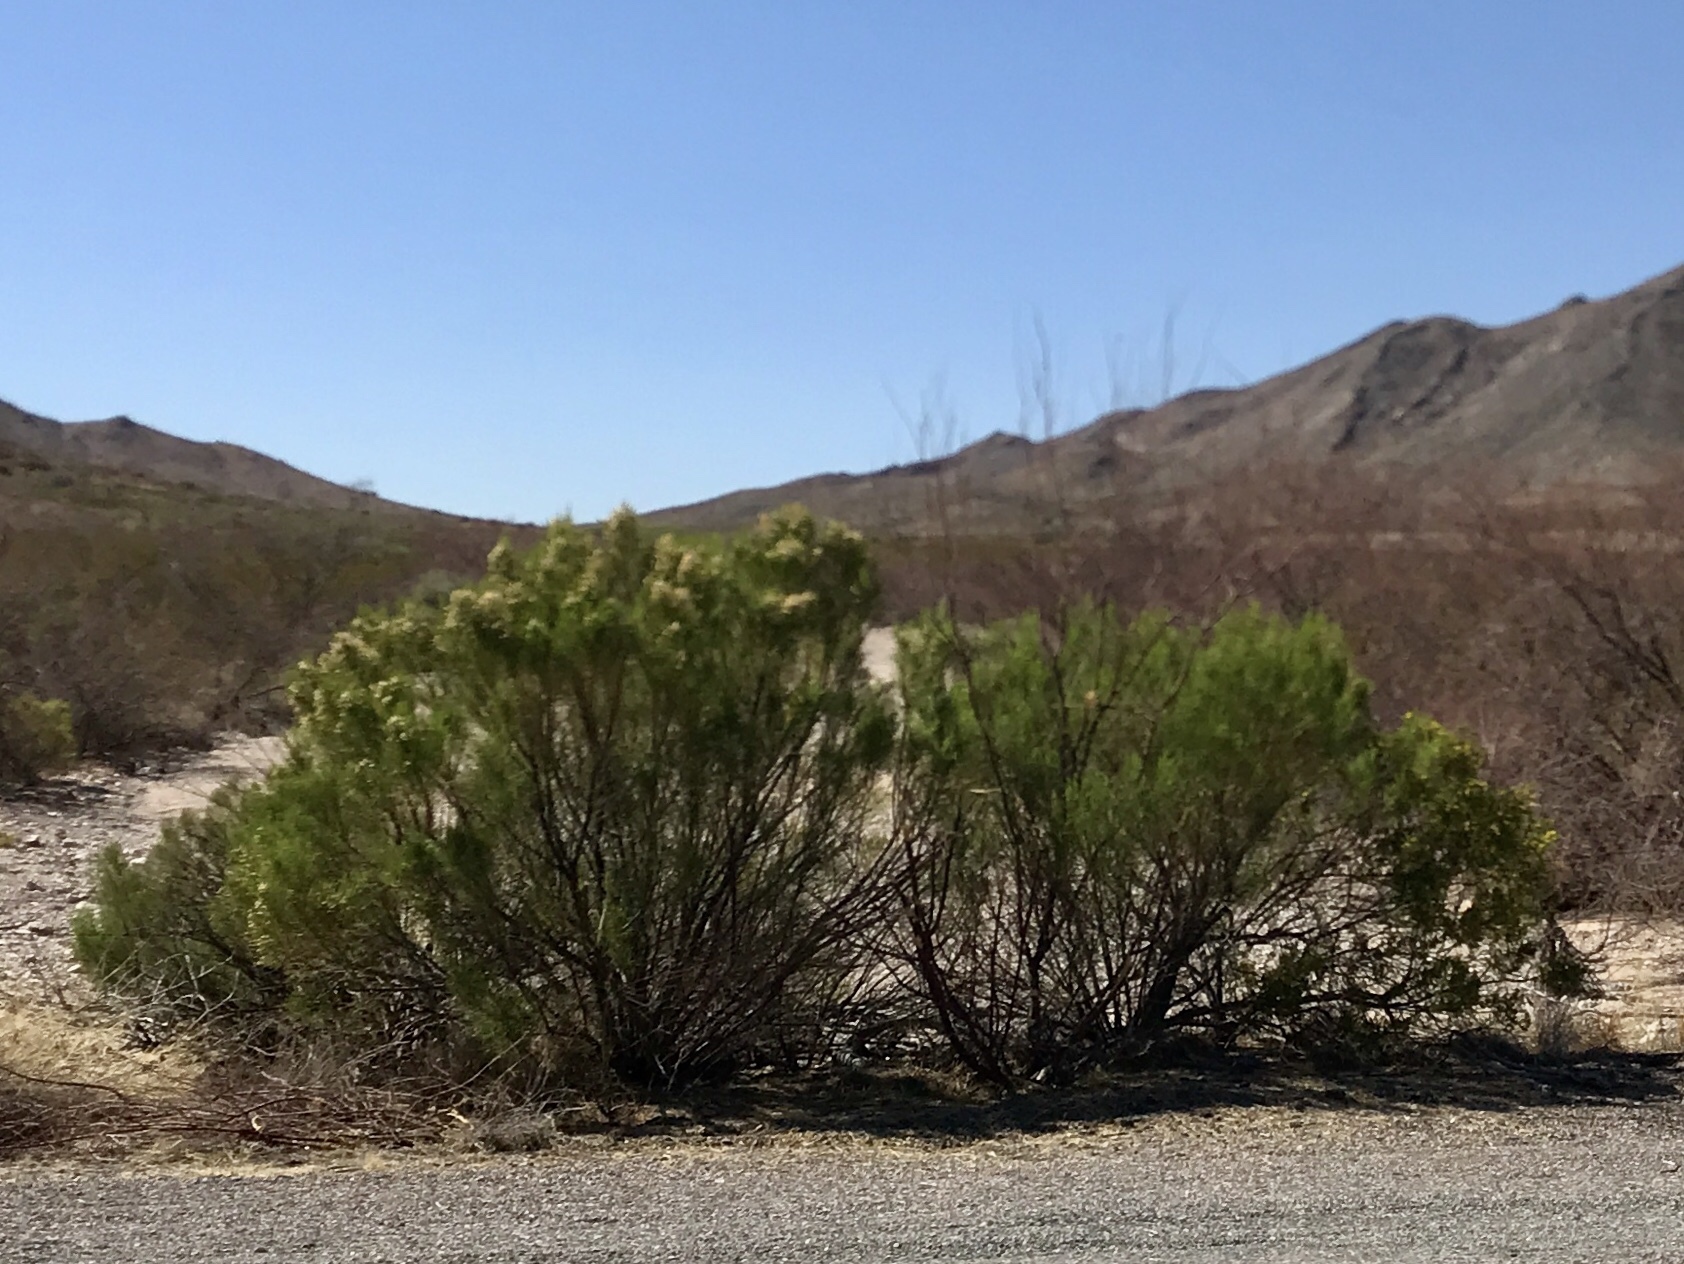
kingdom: Plantae
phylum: Tracheophyta
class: Magnoliopsida
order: Asterales
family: Asteraceae
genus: Baccharis
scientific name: Baccharis sarothroides
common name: Desert-broom
